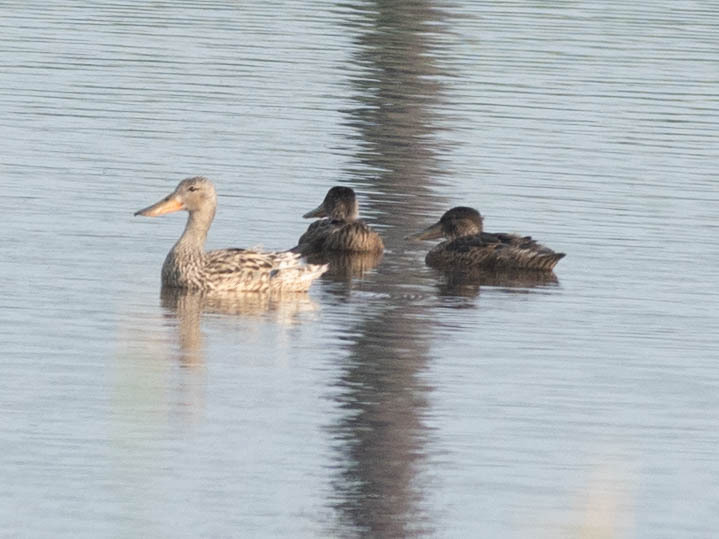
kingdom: Animalia
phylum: Chordata
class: Aves
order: Anseriformes
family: Anatidae
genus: Spatula
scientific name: Spatula clypeata
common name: Northern shoveler
